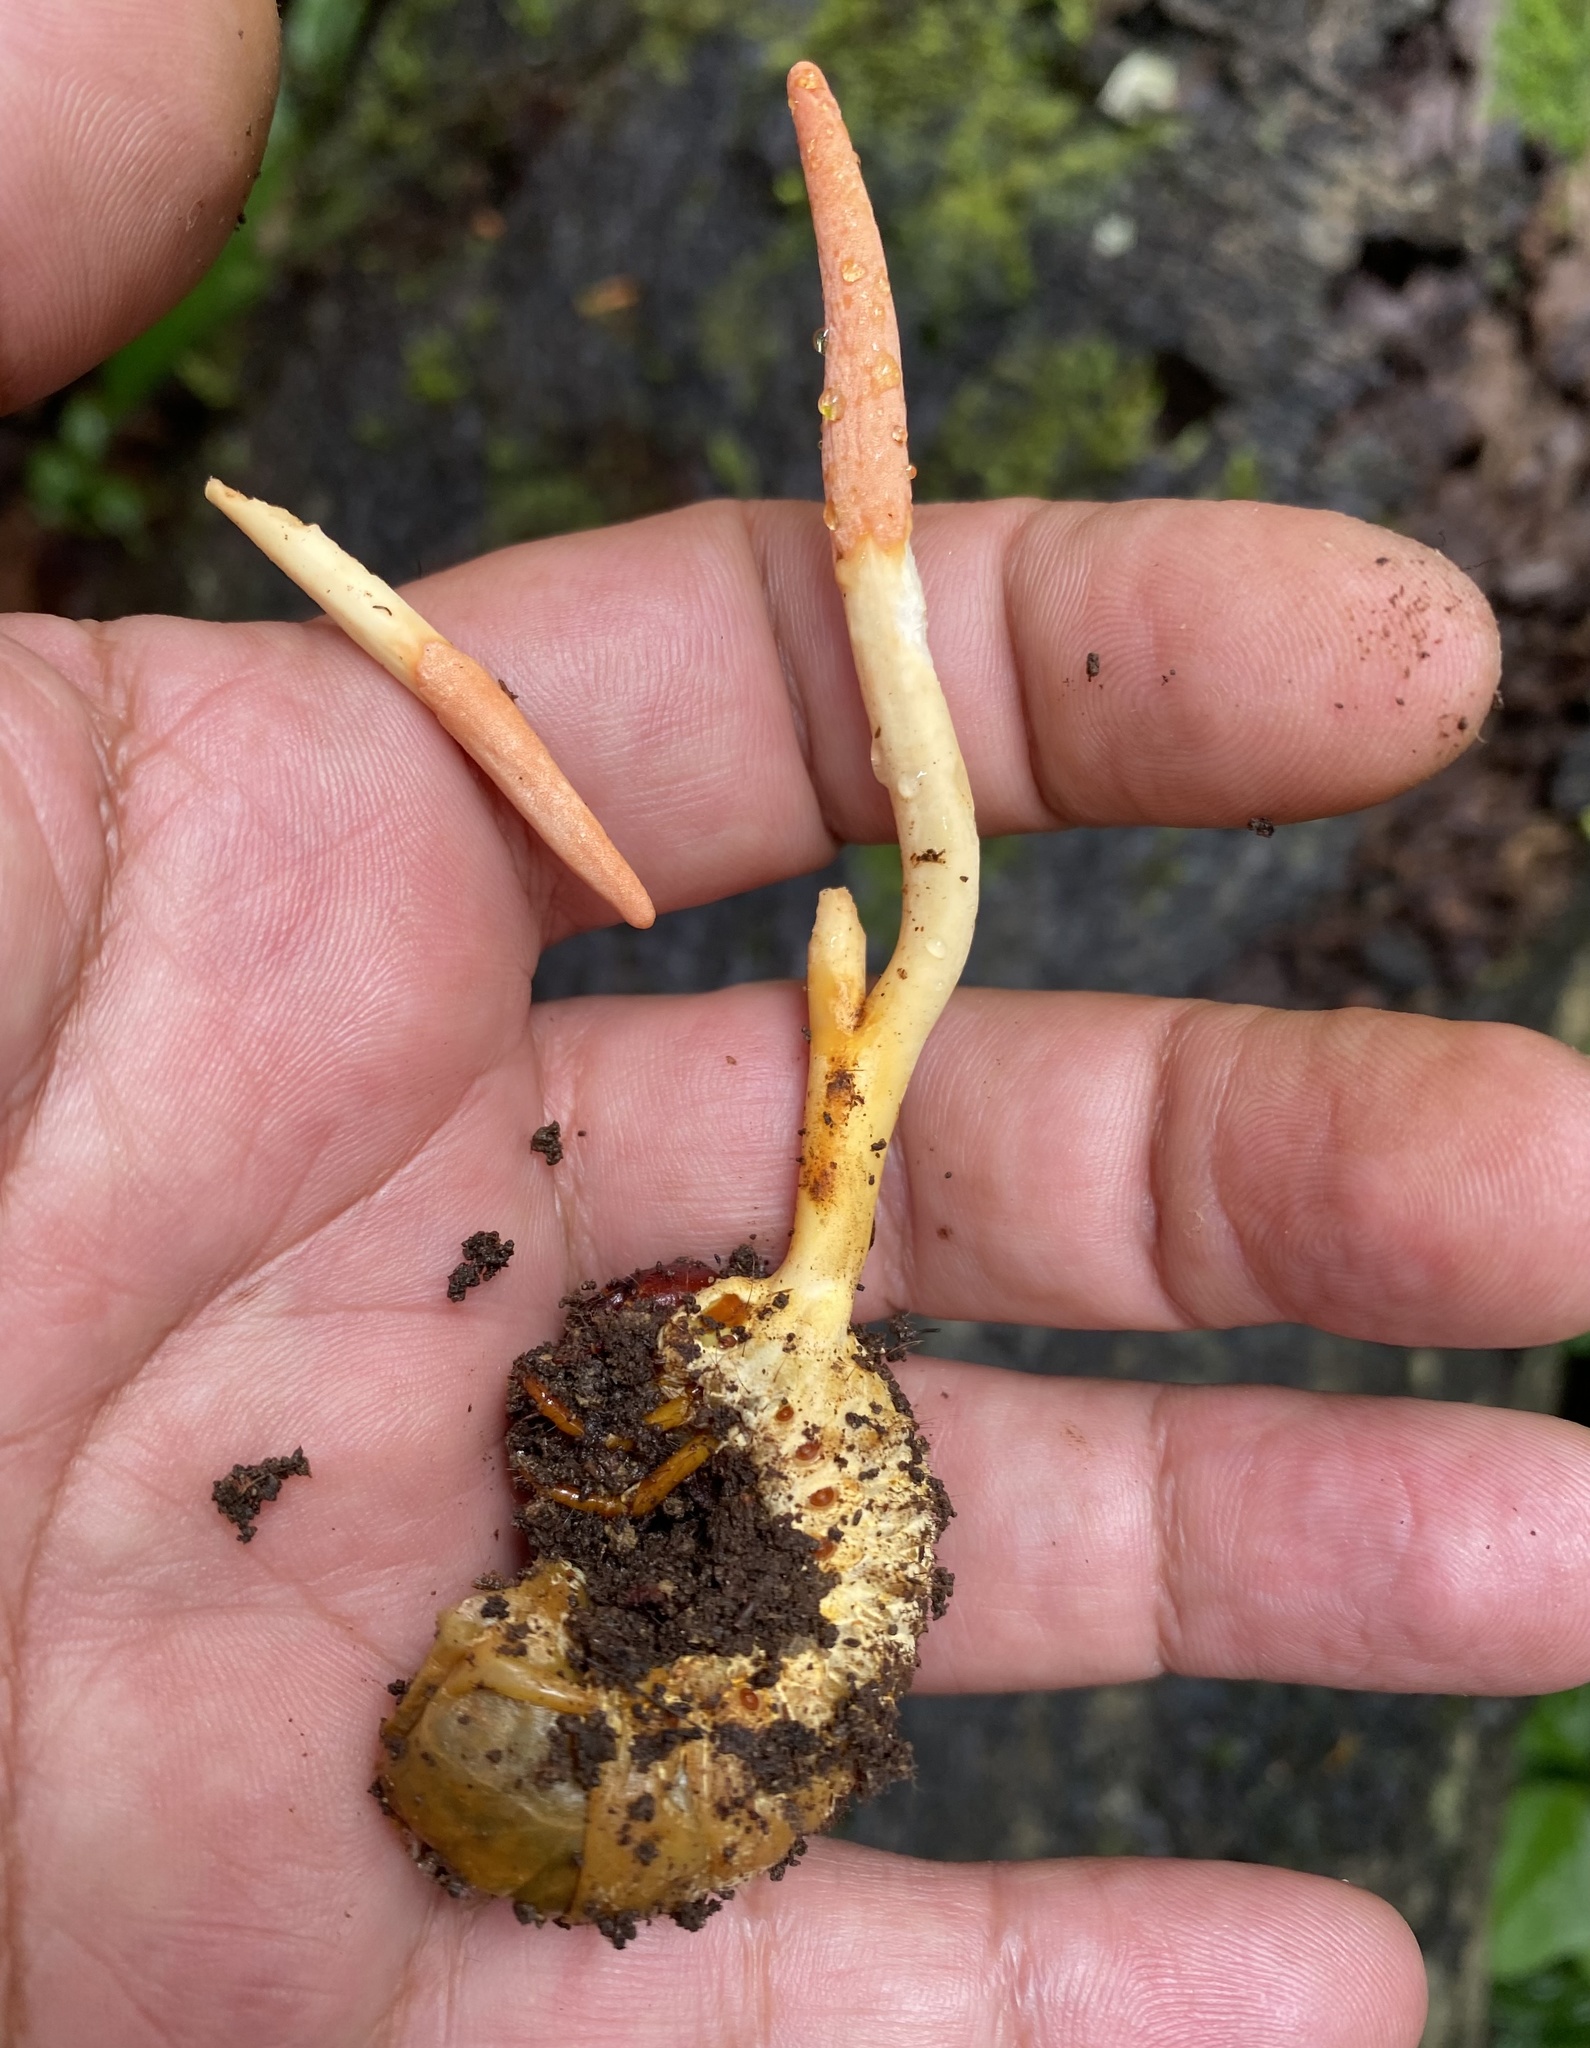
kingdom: Fungi
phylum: Ascomycota
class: Sordariomycetes
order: Hypocreales
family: Ophiocordycipitaceae
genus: Ophiocordyceps
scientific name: Ophiocordyceps melolonthae
